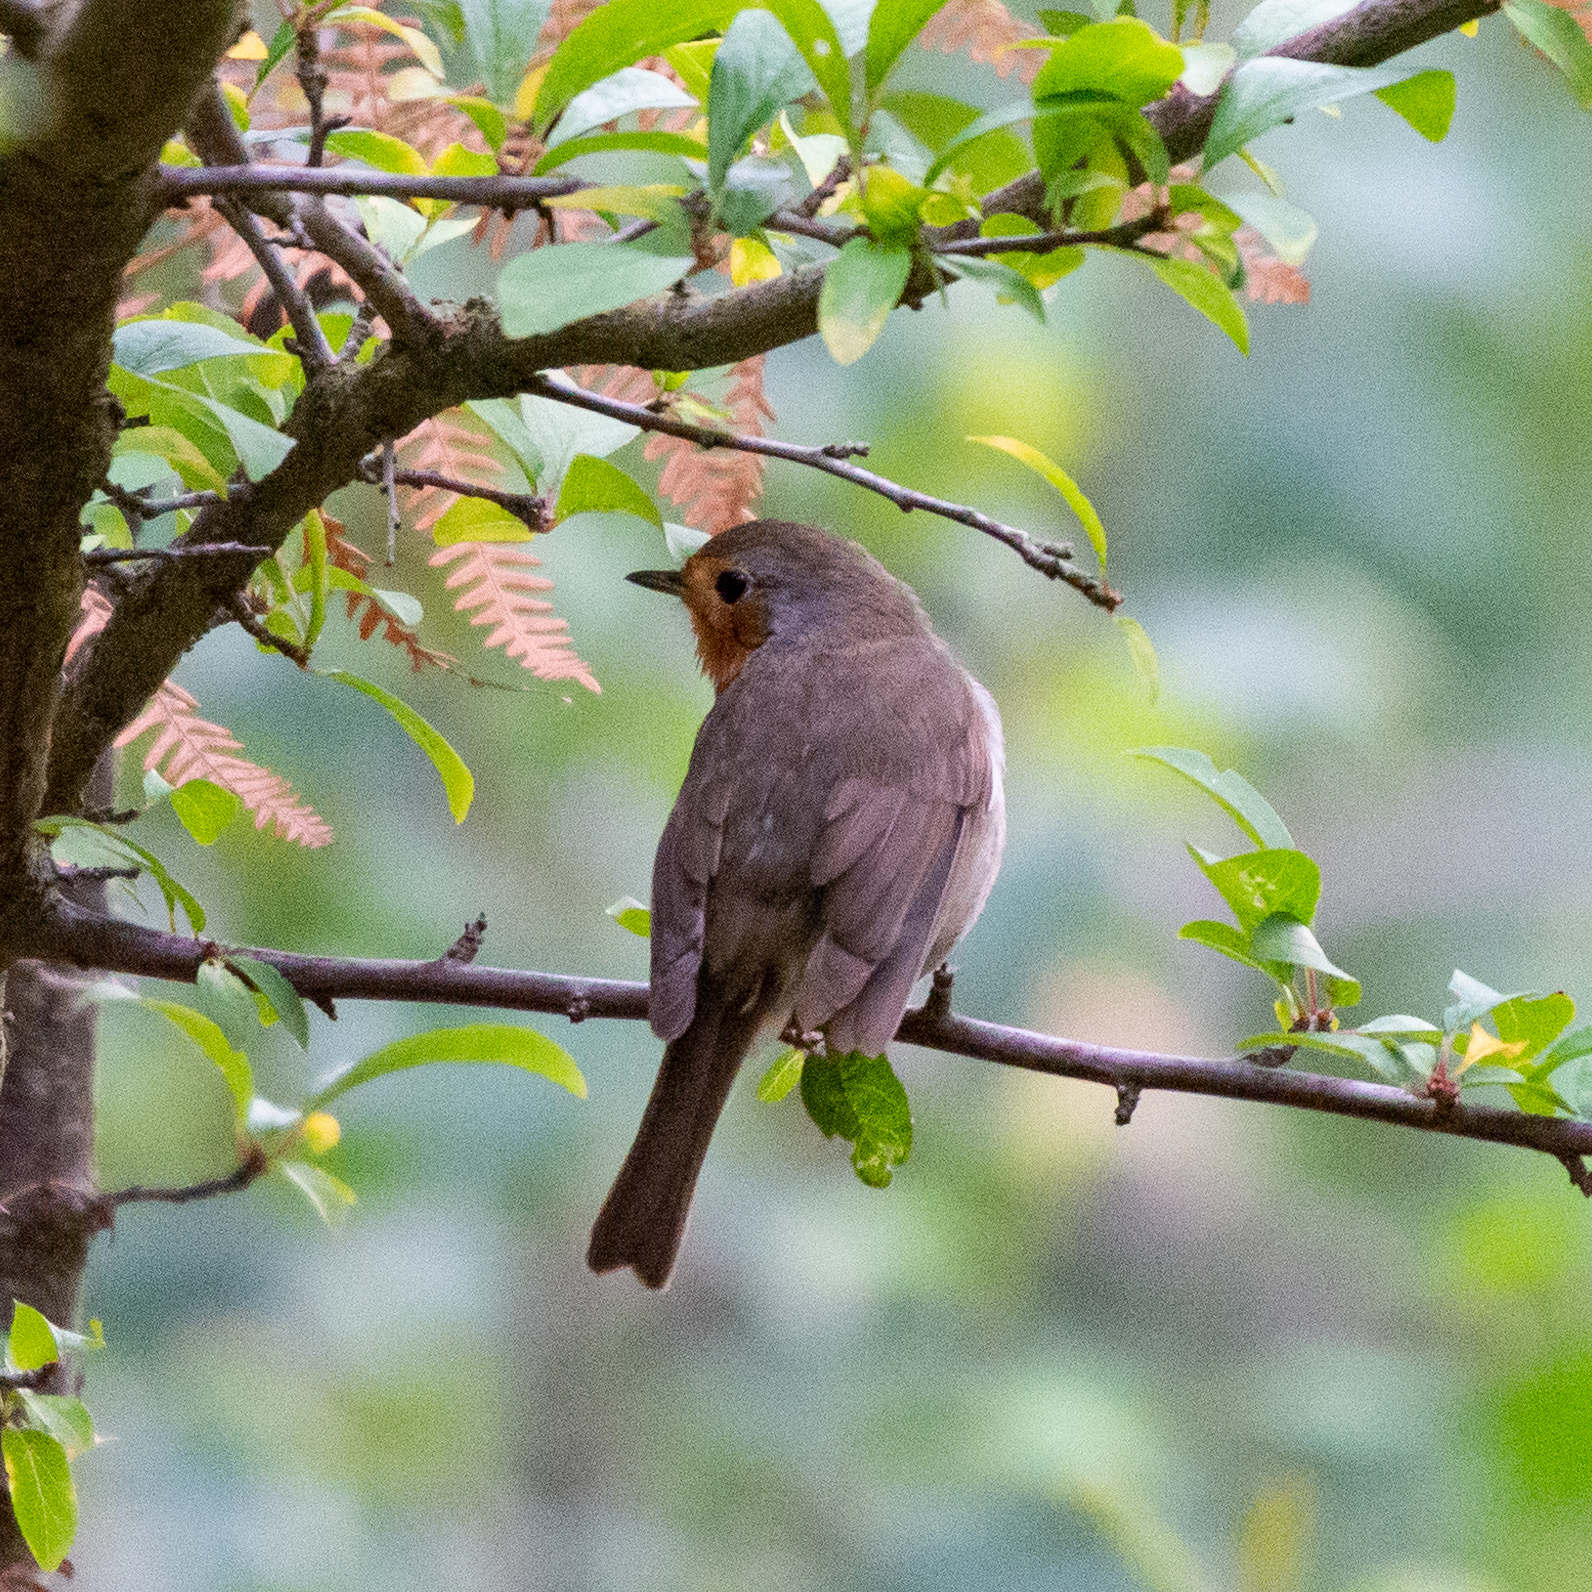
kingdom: Animalia
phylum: Chordata
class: Aves
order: Passeriformes
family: Muscicapidae
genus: Erithacus
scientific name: Erithacus rubecula
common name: European robin
